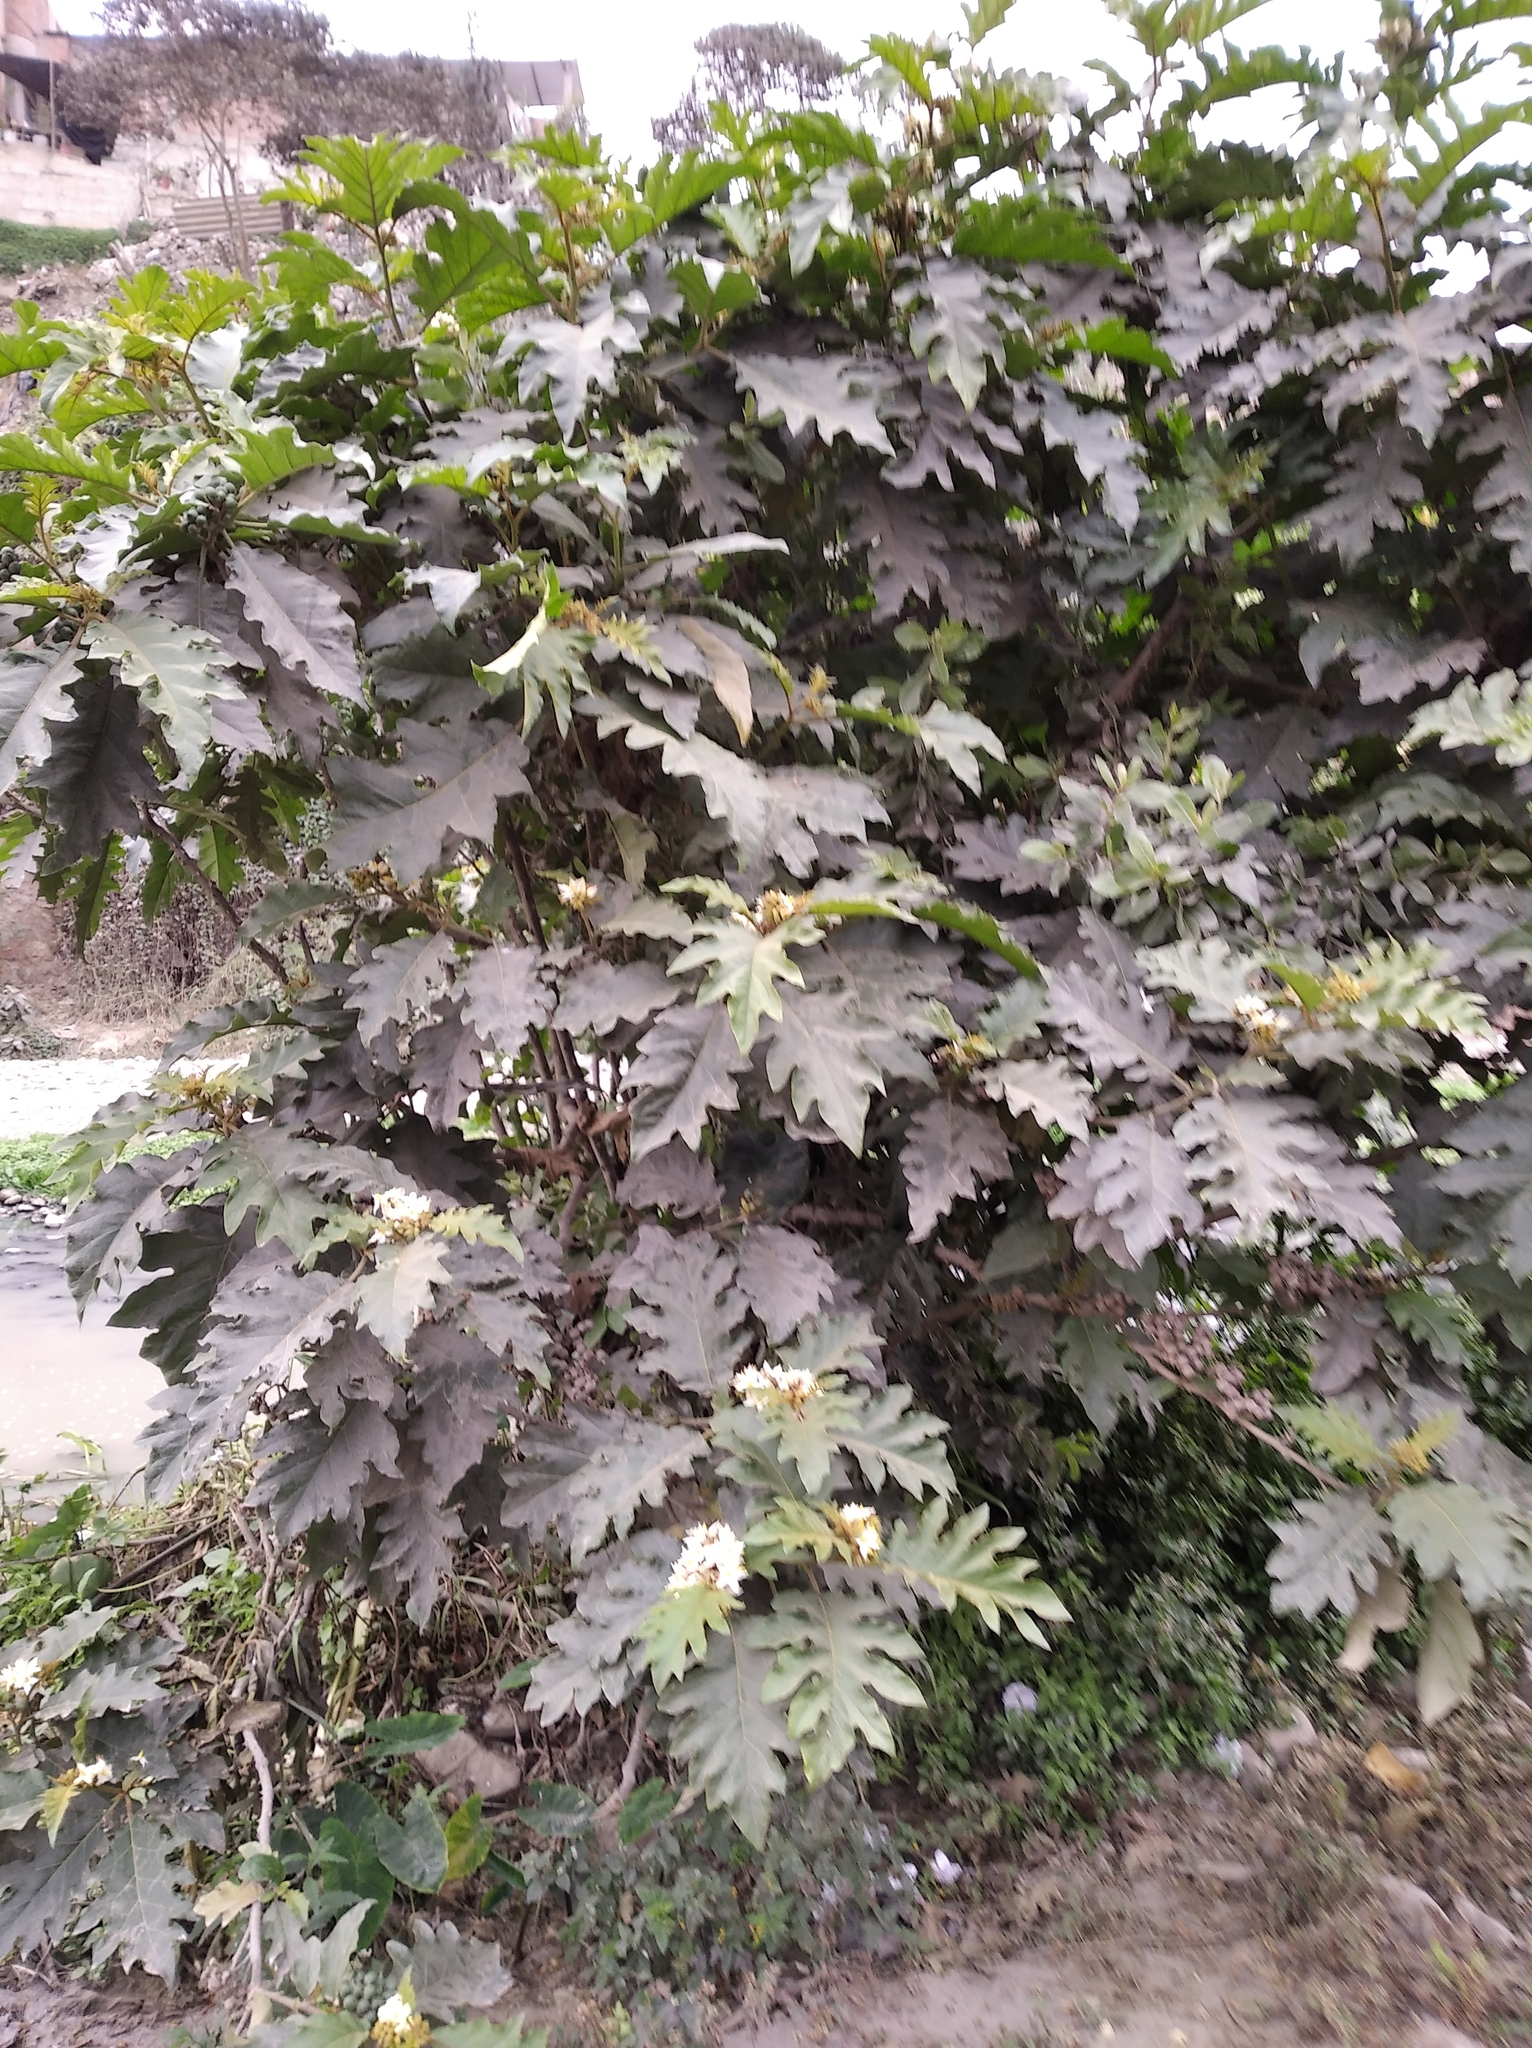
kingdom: Plantae
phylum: Tracheophyta
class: Magnoliopsida
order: Solanales
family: Solanaceae
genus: Solanum
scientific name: Solanum chrysotrichum
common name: Nightshade
